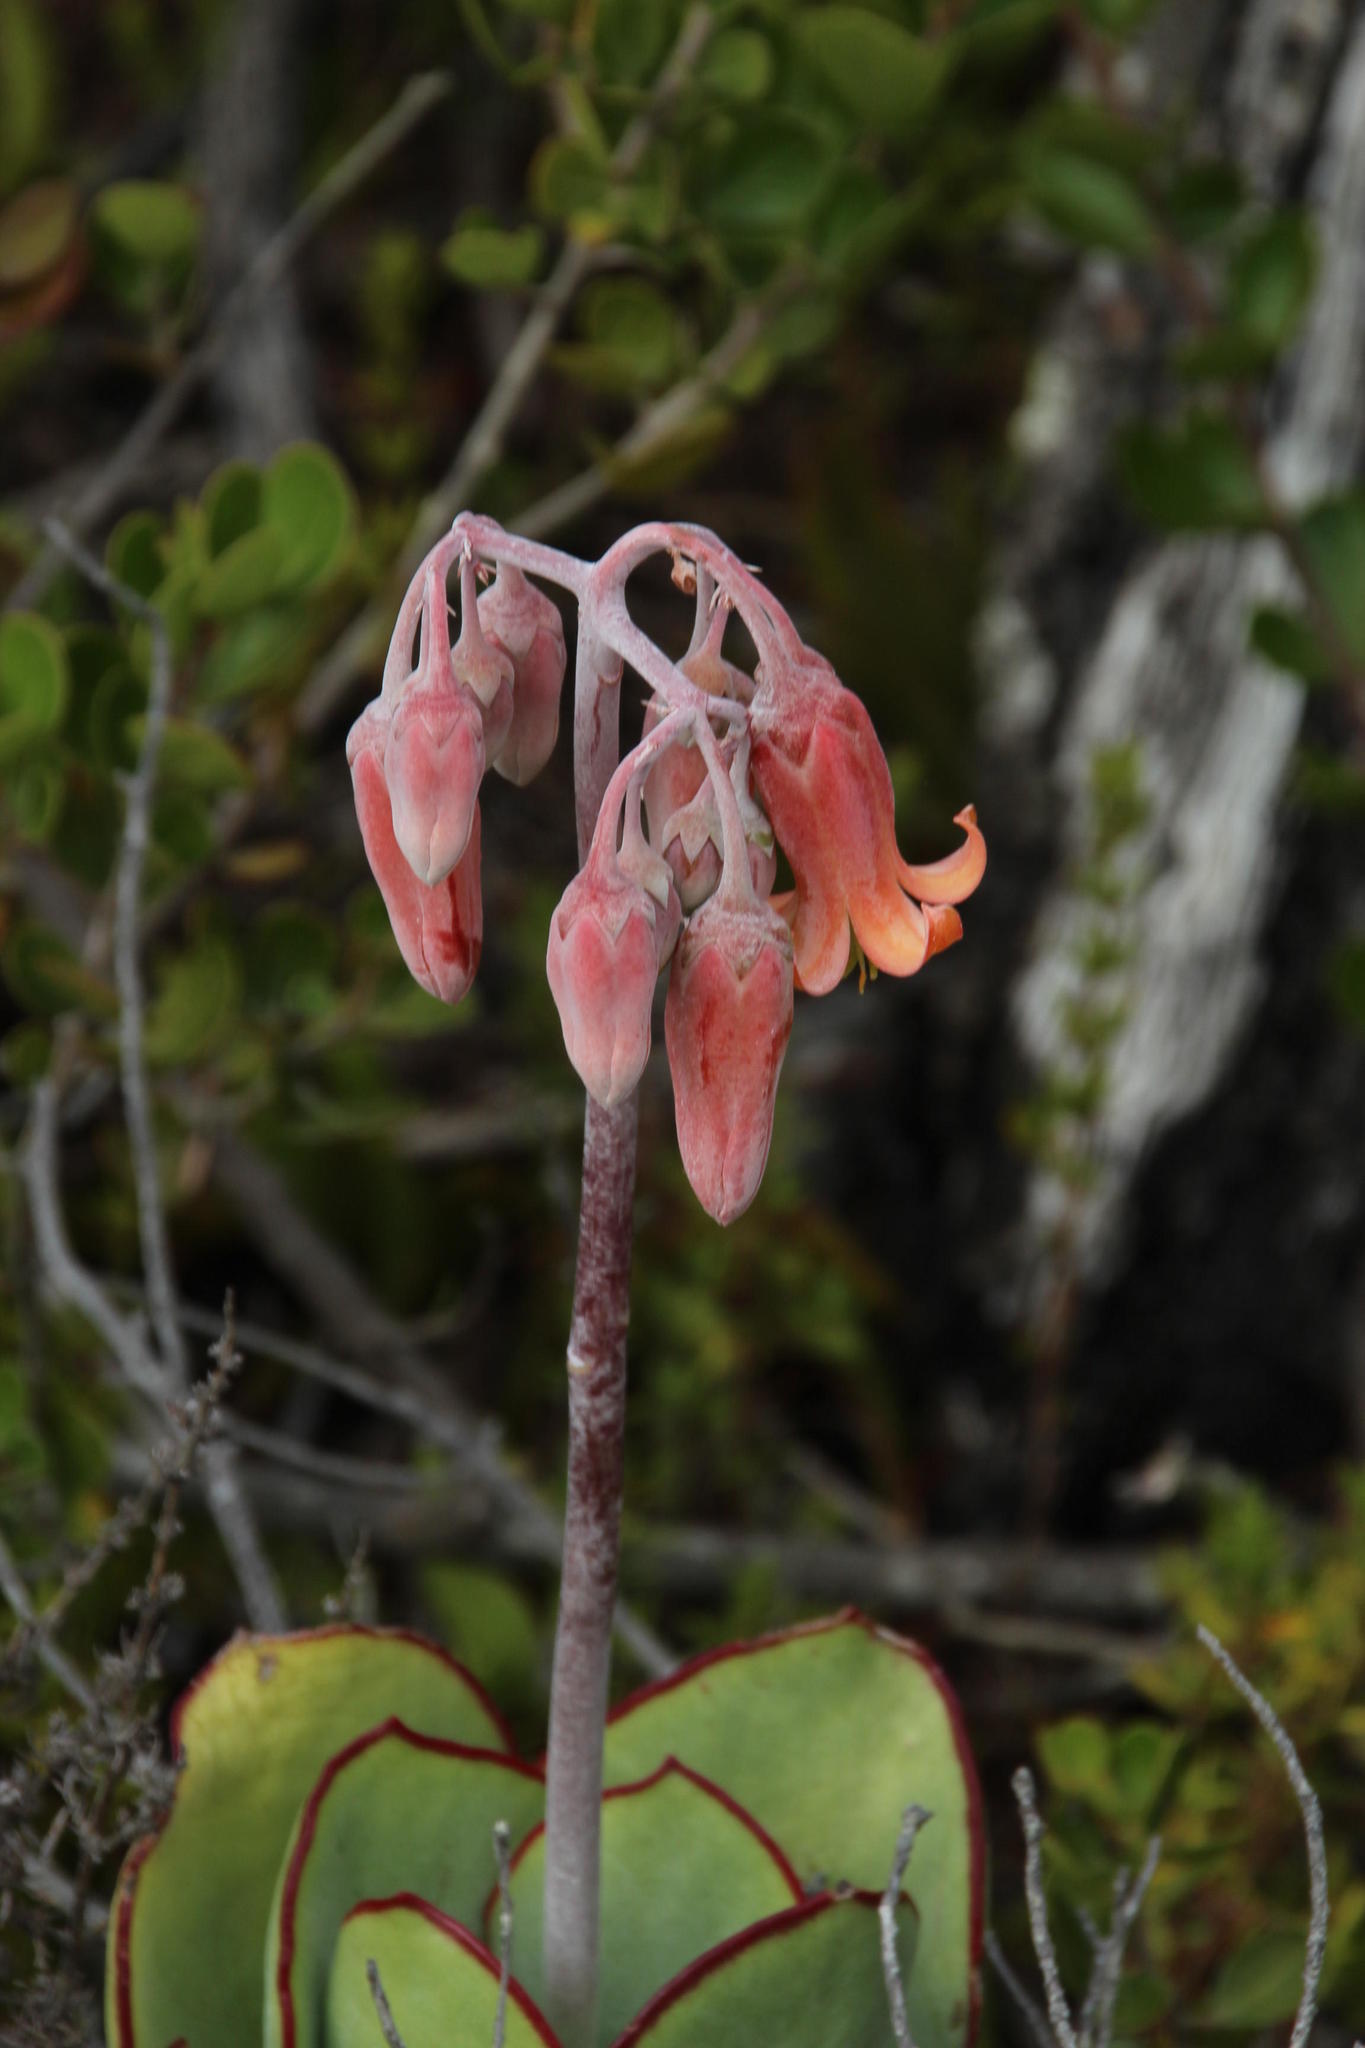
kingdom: Plantae
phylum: Tracheophyta
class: Magnoliopsida
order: Saxifragales
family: Crassulaceae
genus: Cotyledon
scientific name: Cotyledon orbiculata
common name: Pig's ear
